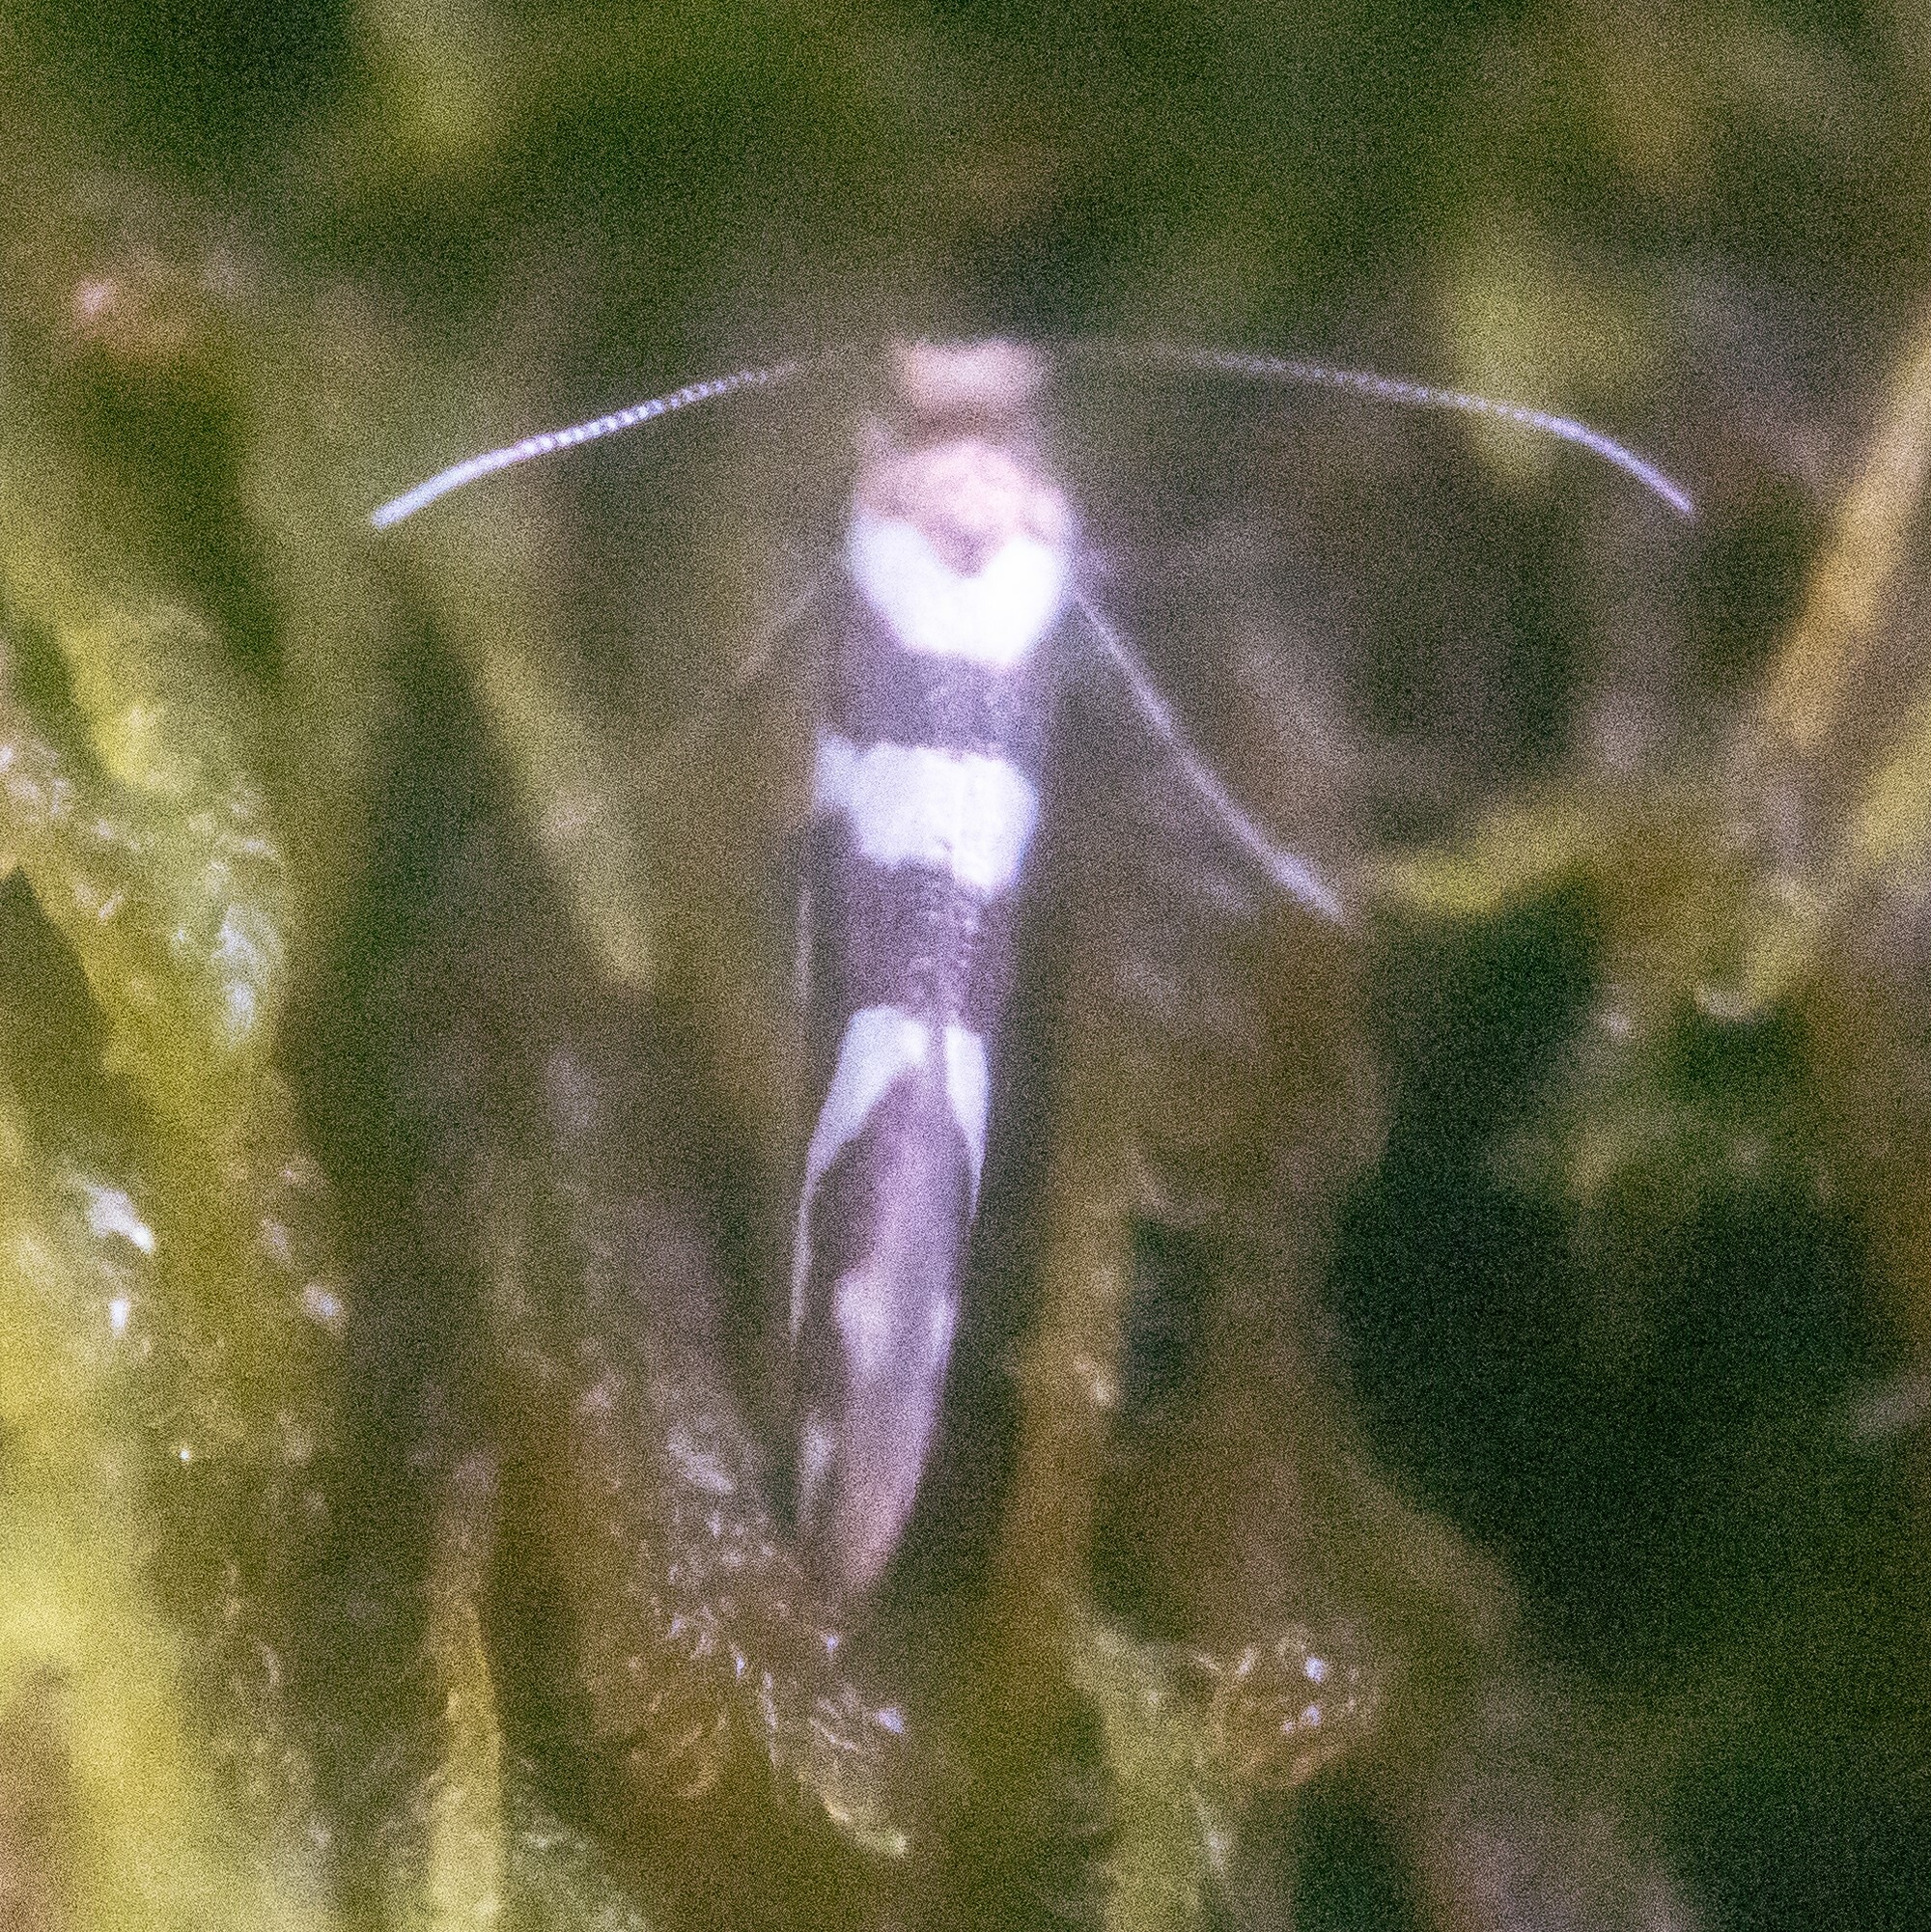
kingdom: Animalia
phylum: Arthropoda
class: Insecta
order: Lepidoptera
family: Argyresthiidae
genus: Argyresthia
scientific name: Argyresthia goedartella
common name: Golden argent
